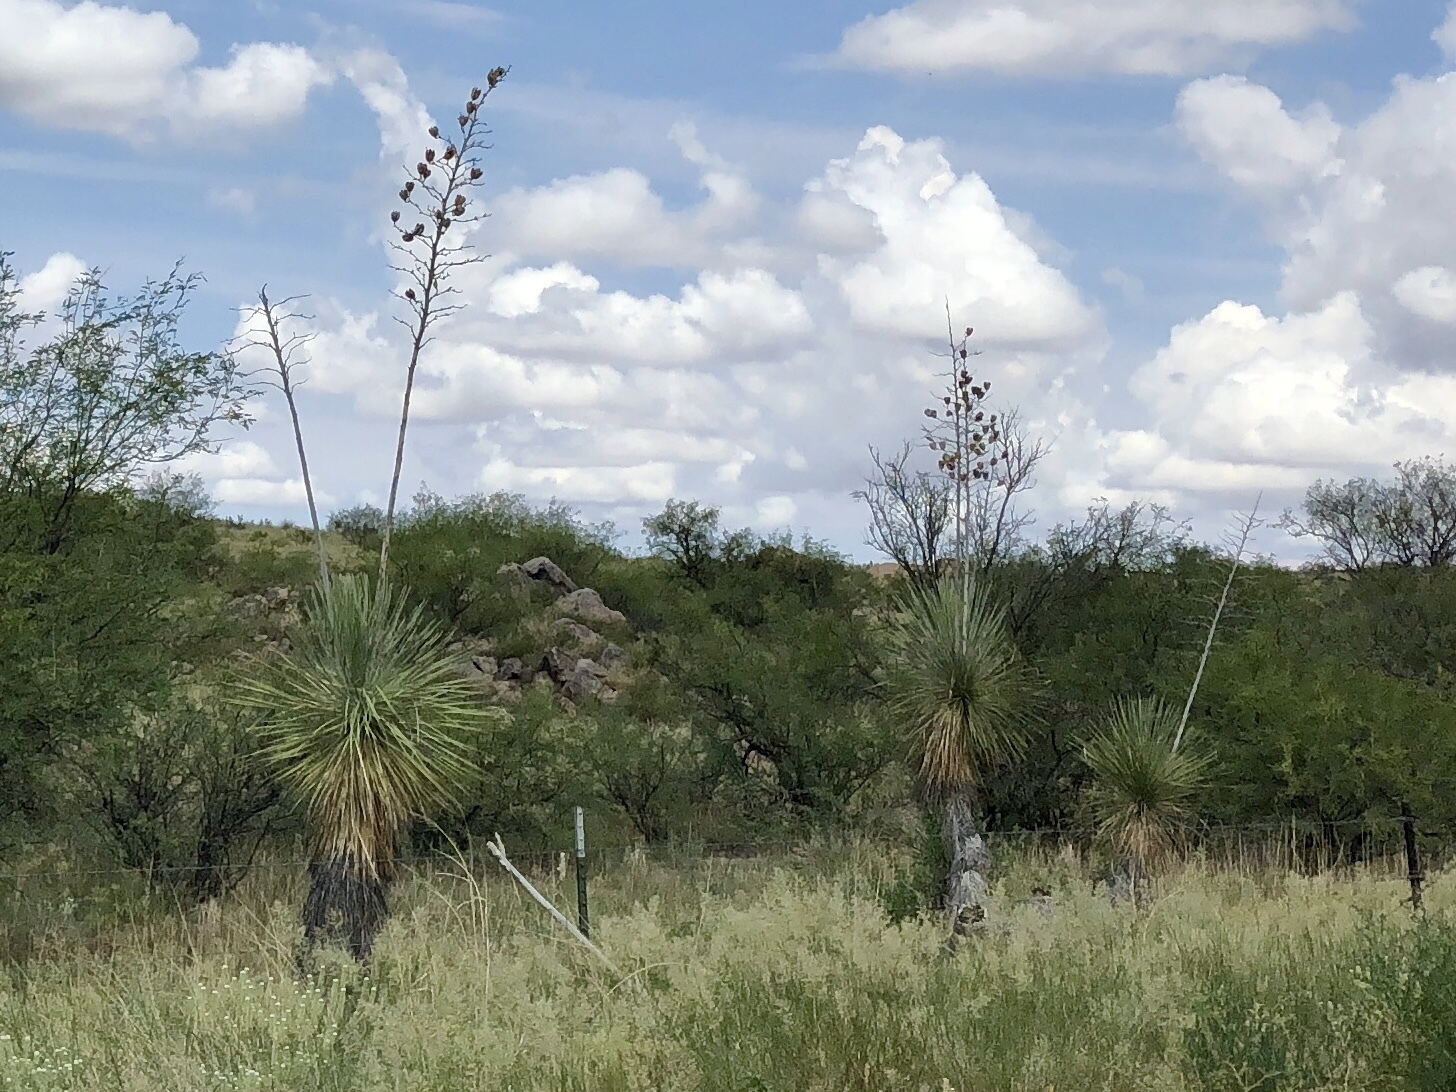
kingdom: Plantae
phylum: Tracheophyta
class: Liliopsida
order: Asparagales
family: Asparagaceae
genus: Yucca
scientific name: Yucca elata
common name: Palmella
